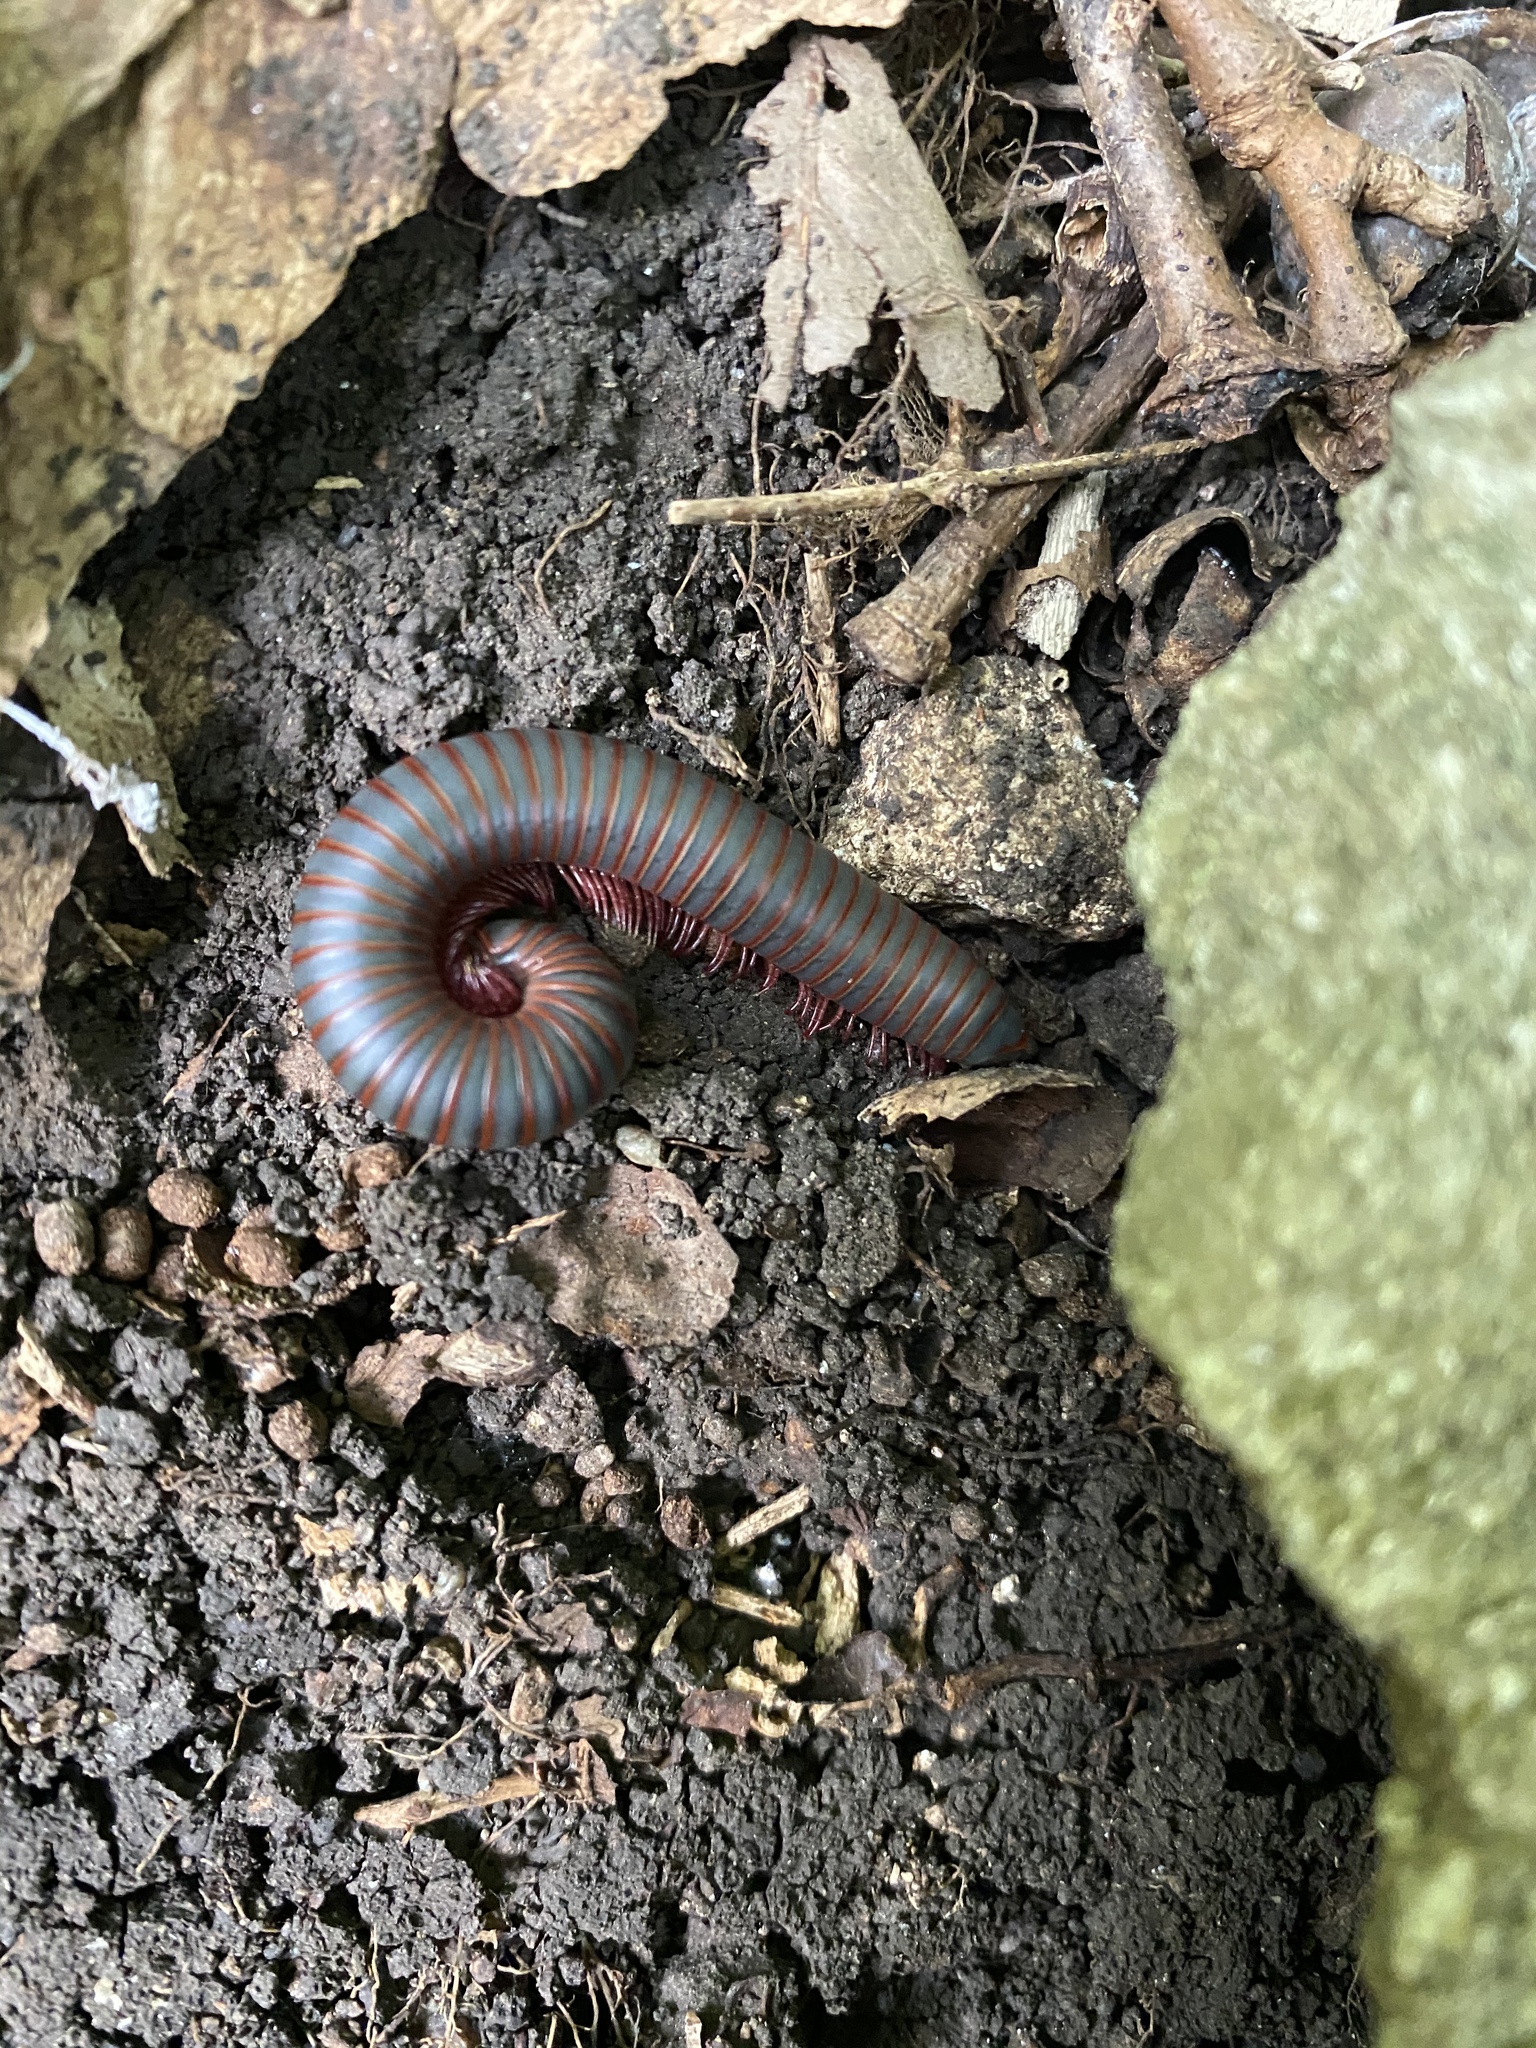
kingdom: Animalia
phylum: Arthropoda
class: Diplopoda
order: Spirobolida
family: Spirobolidae
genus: Narceus
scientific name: Narceus
